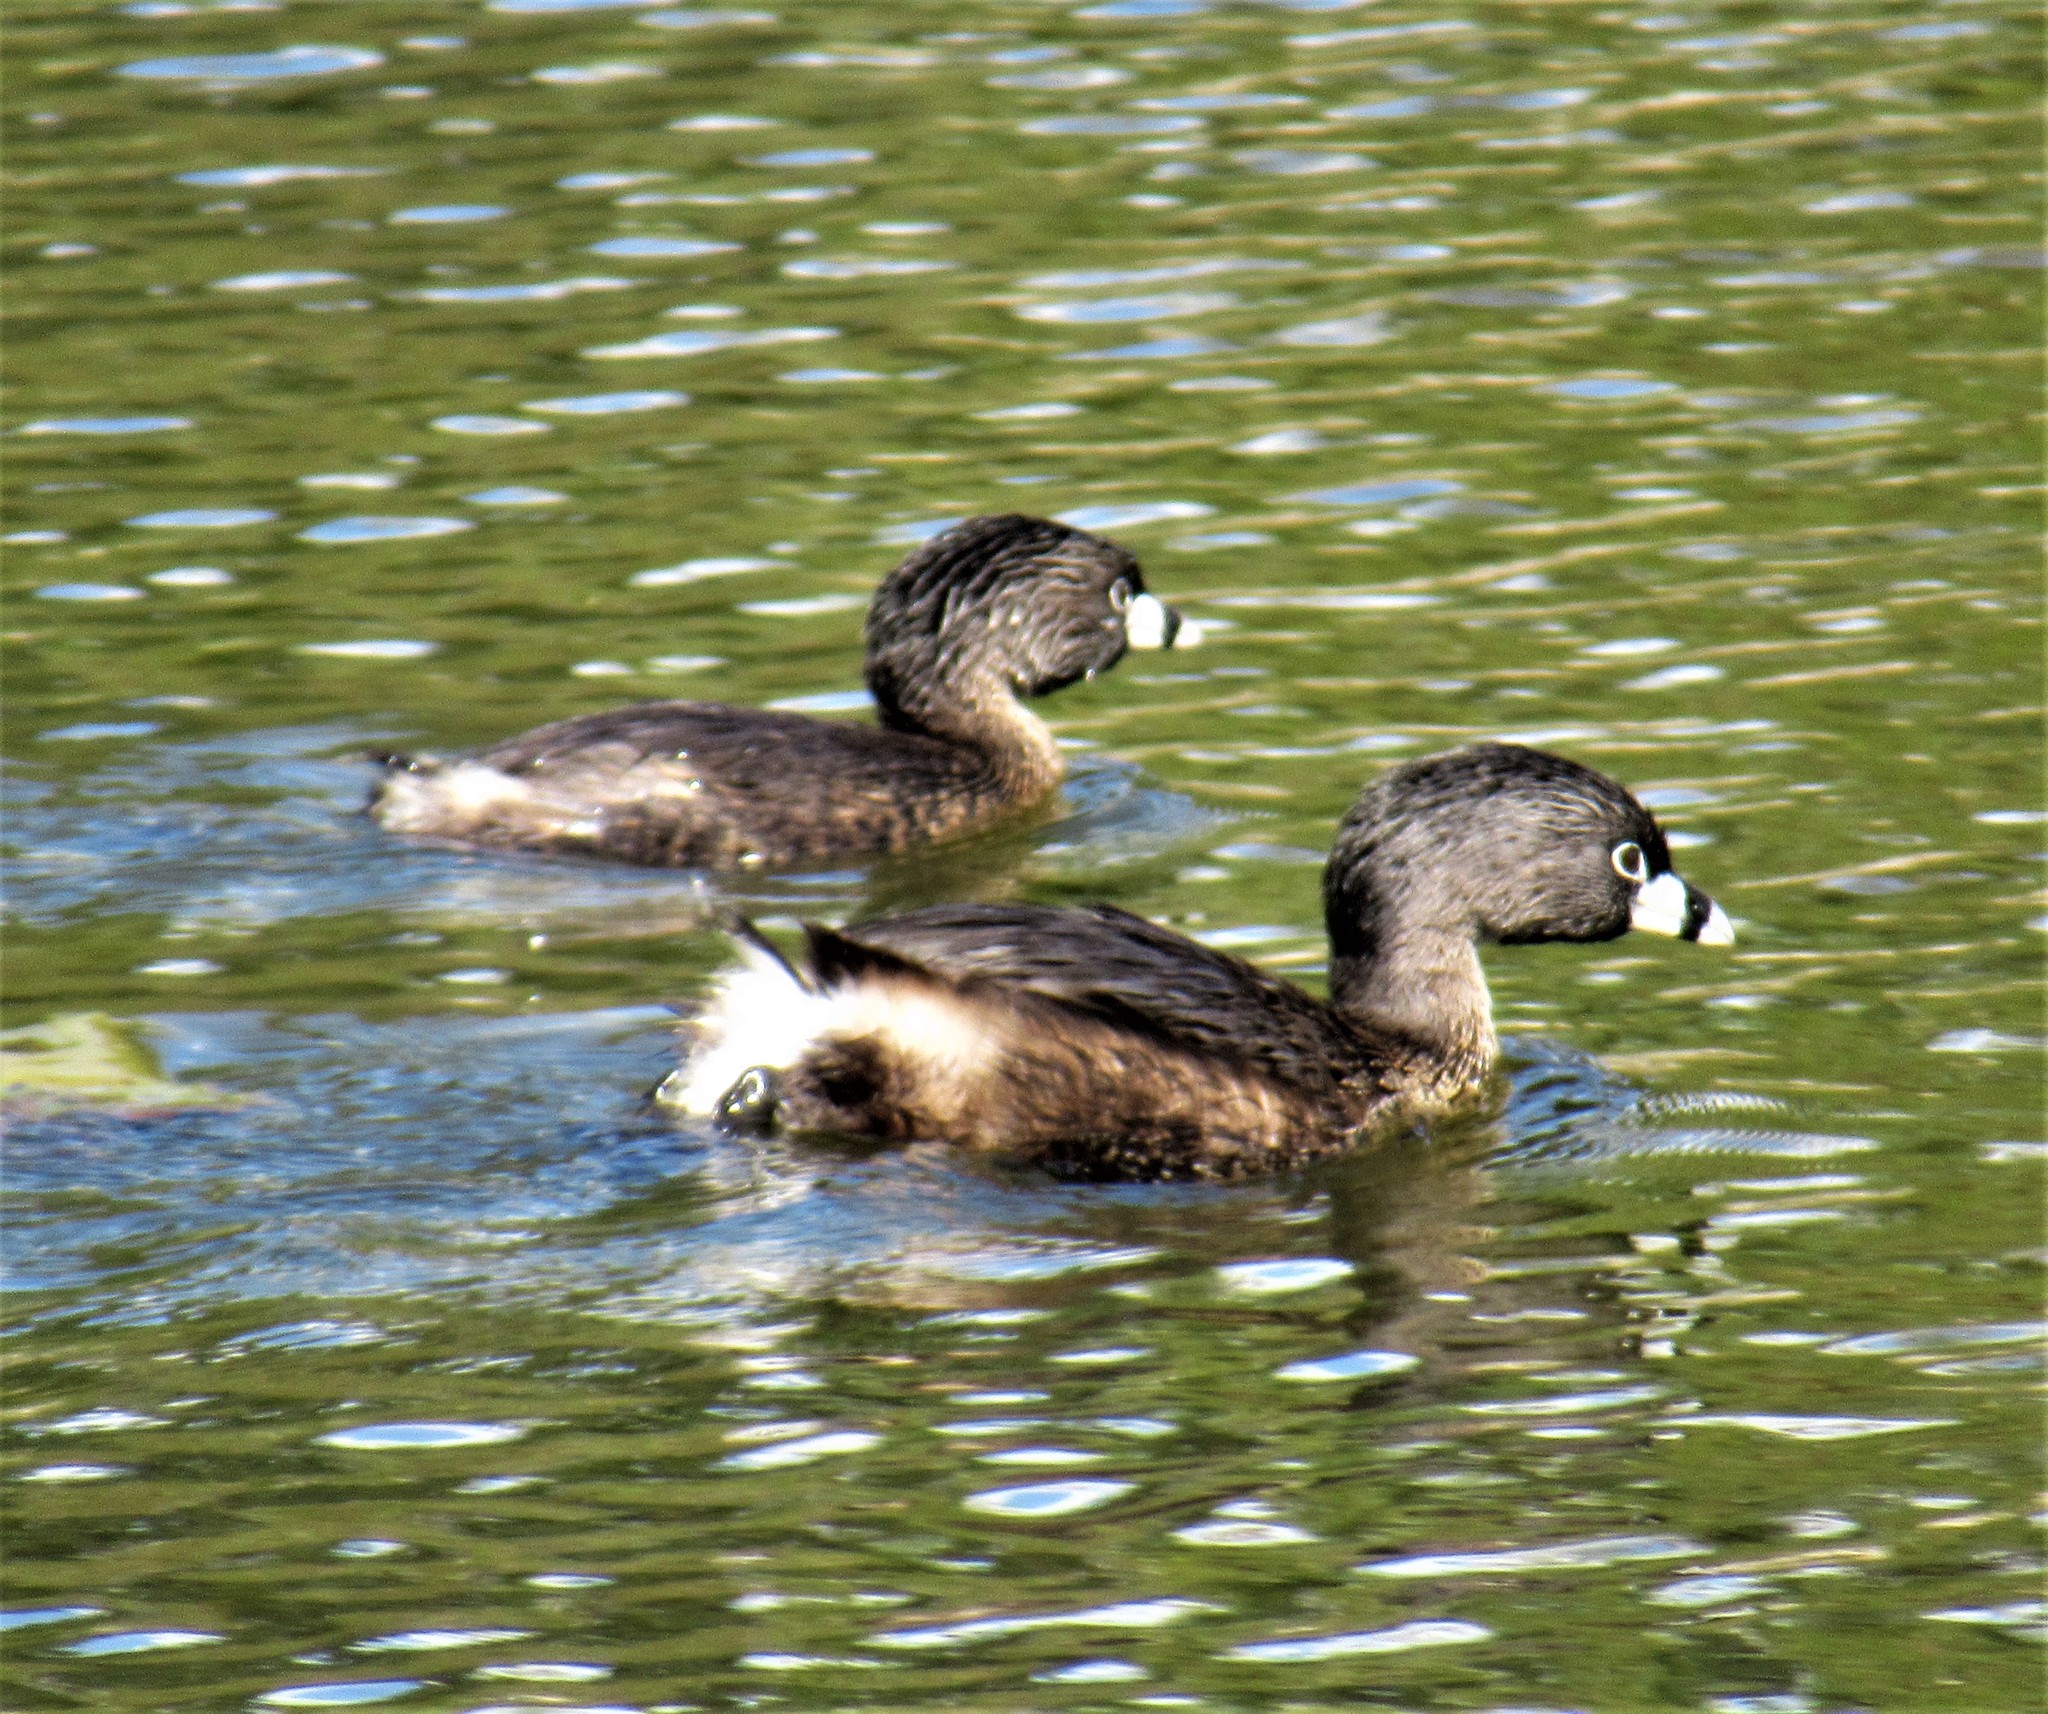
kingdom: Animalia
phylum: Chordata
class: Aves
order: Podicipediformes
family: Podicipedidae
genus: Podilymbus
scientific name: Podilymbus podiceps
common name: Pied-billed grebe
